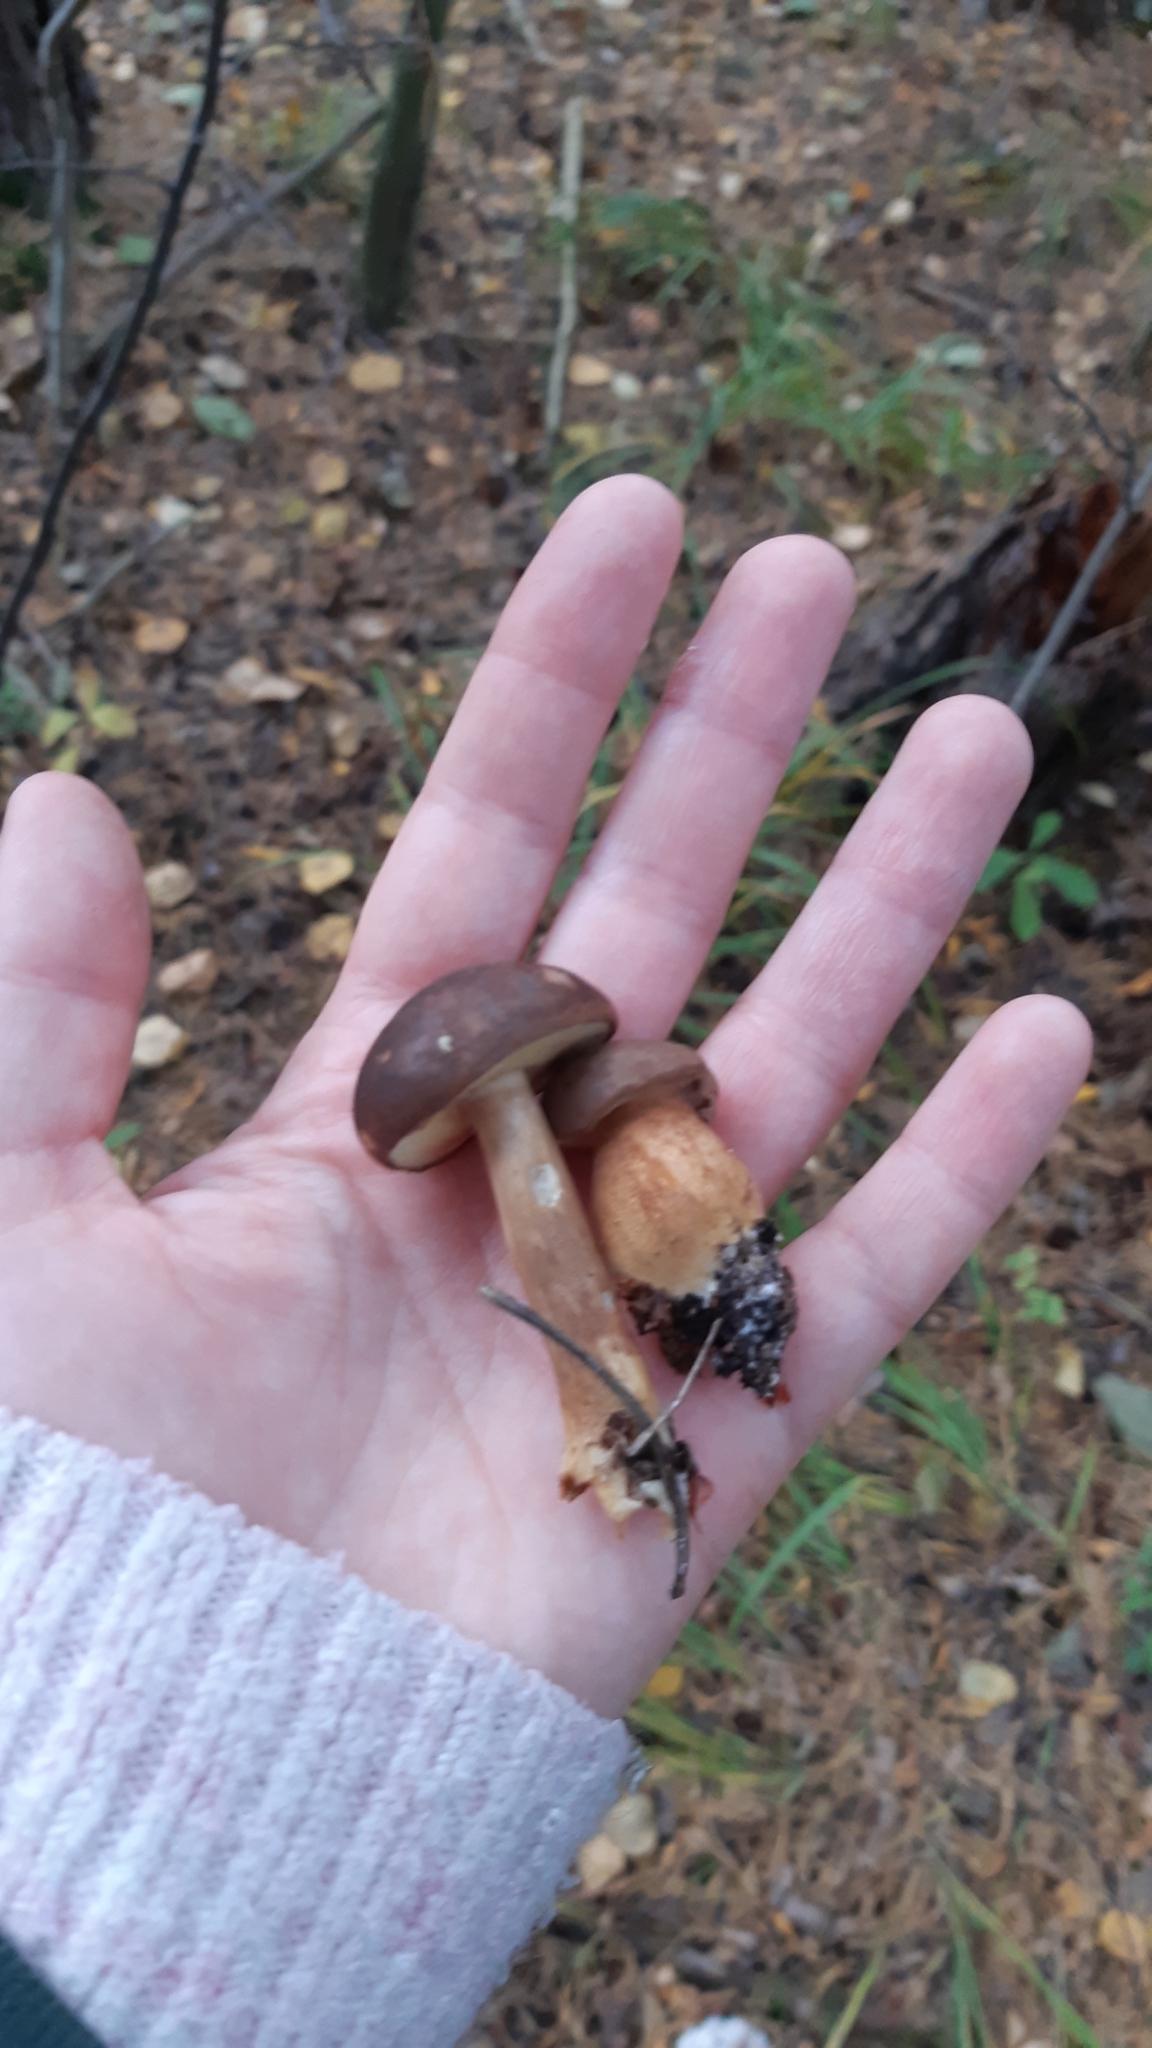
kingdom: Fungi
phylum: Basidiomycota
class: Agaricomycetes
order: Boletales
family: Boletaceae
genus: Imleria
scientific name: Imleria badia
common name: Bay bolete
